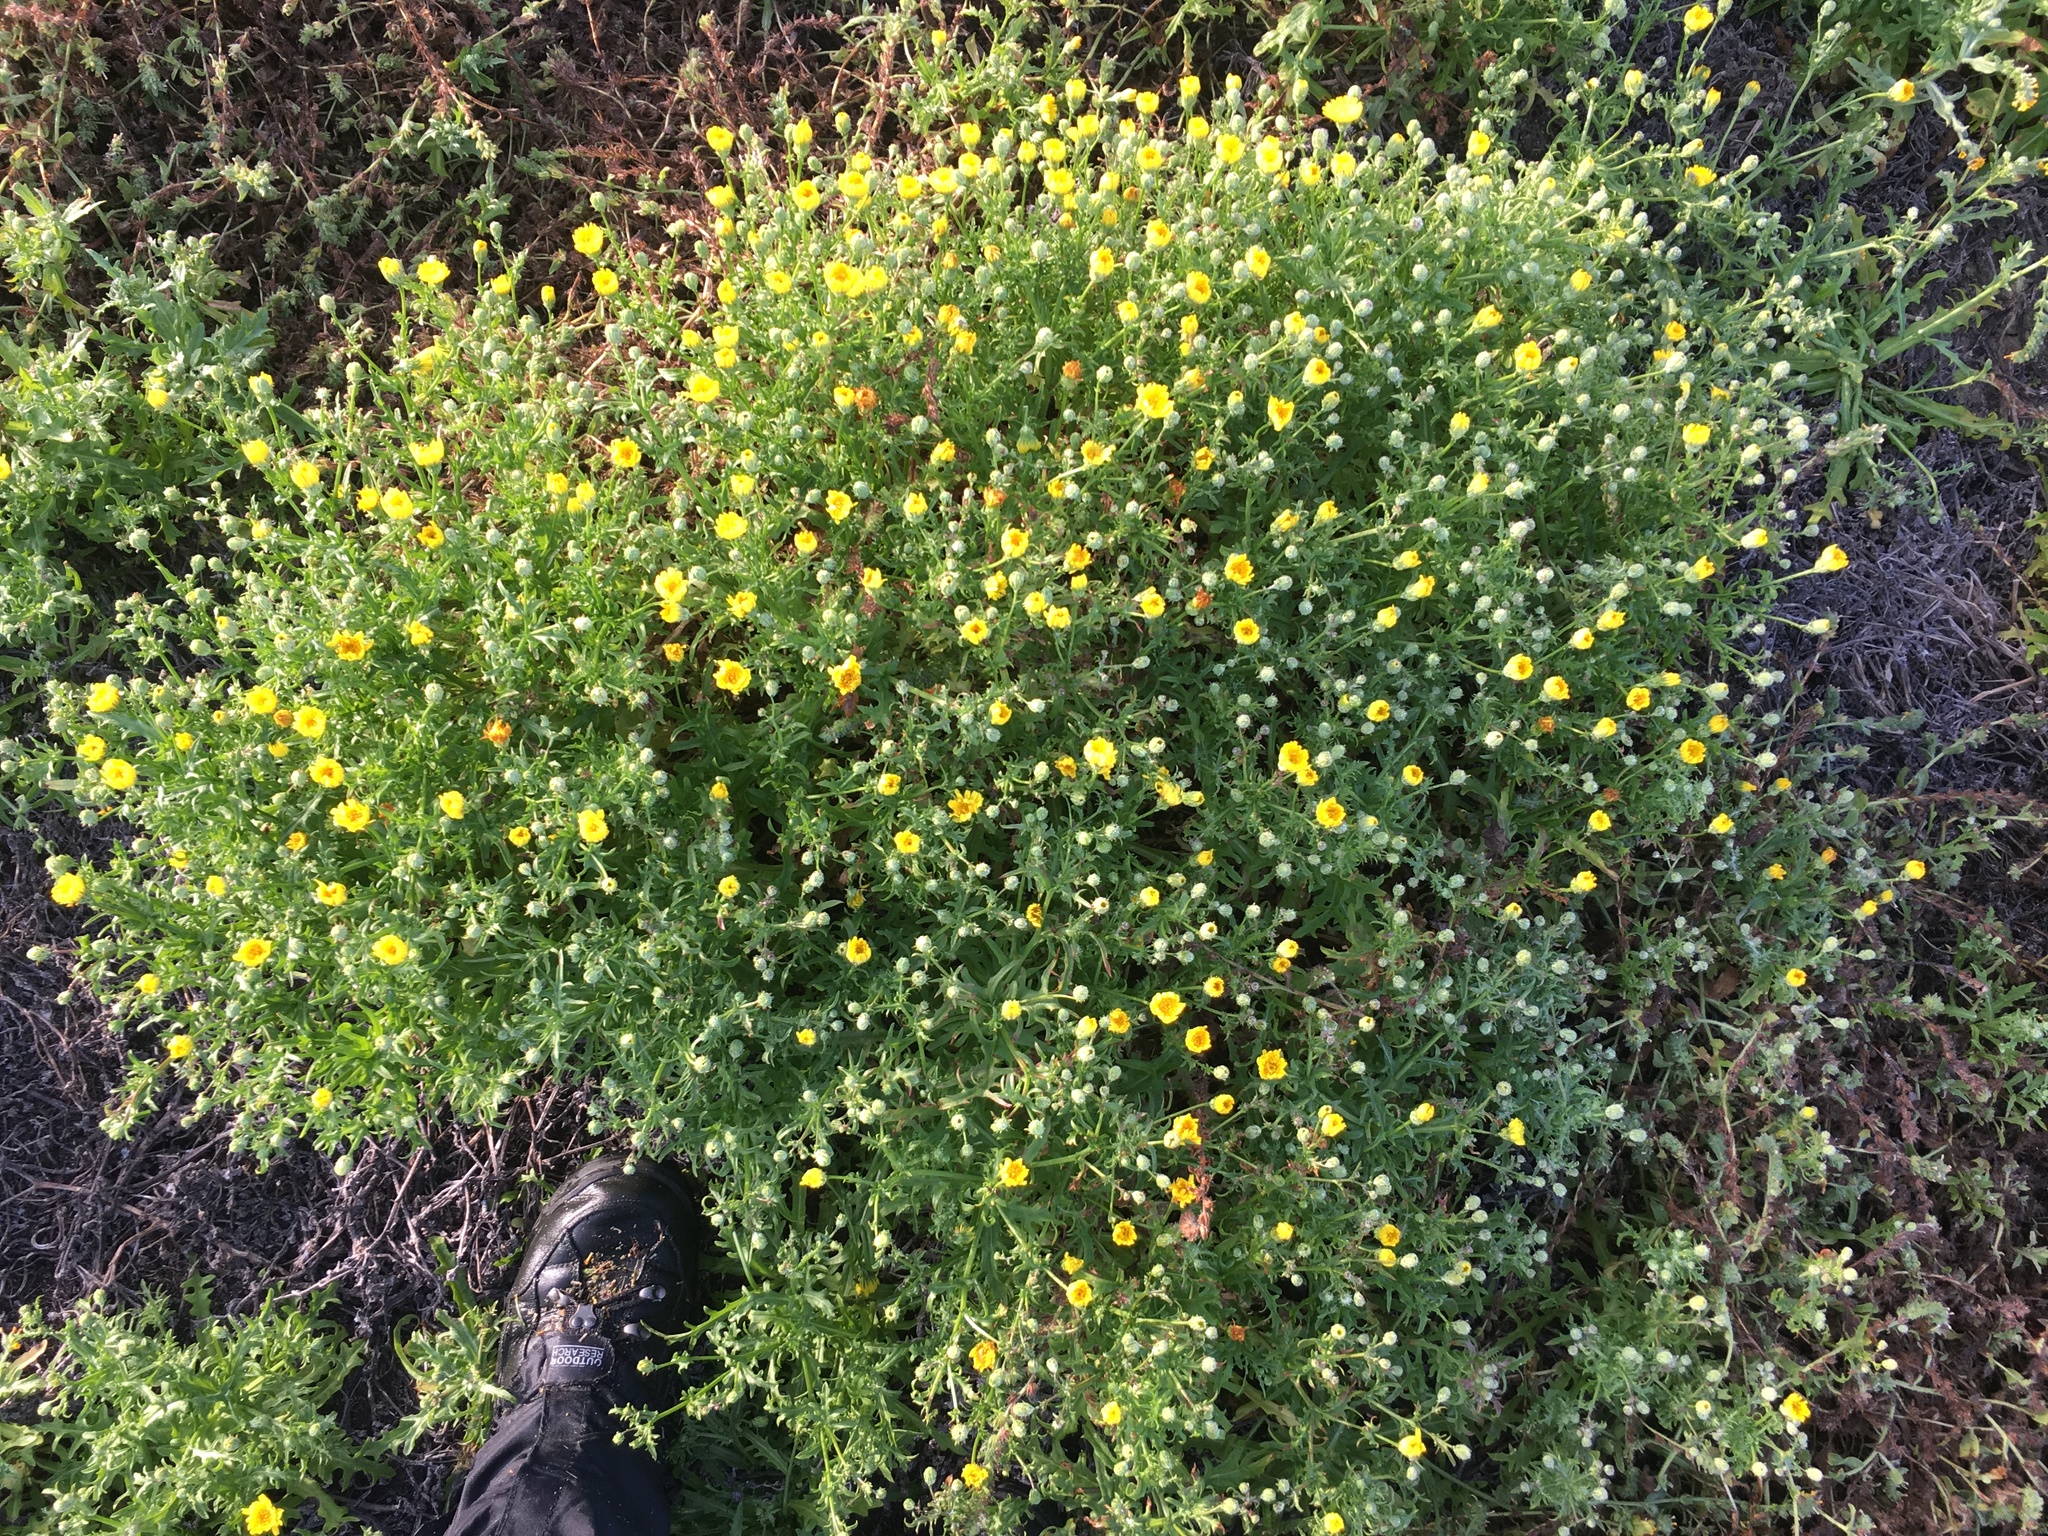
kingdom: Plantae
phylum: Tracheophyta
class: Magnoliopsida
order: Asterales
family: Asteraceae
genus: Malacothrix
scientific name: Malacothrix foliosa
